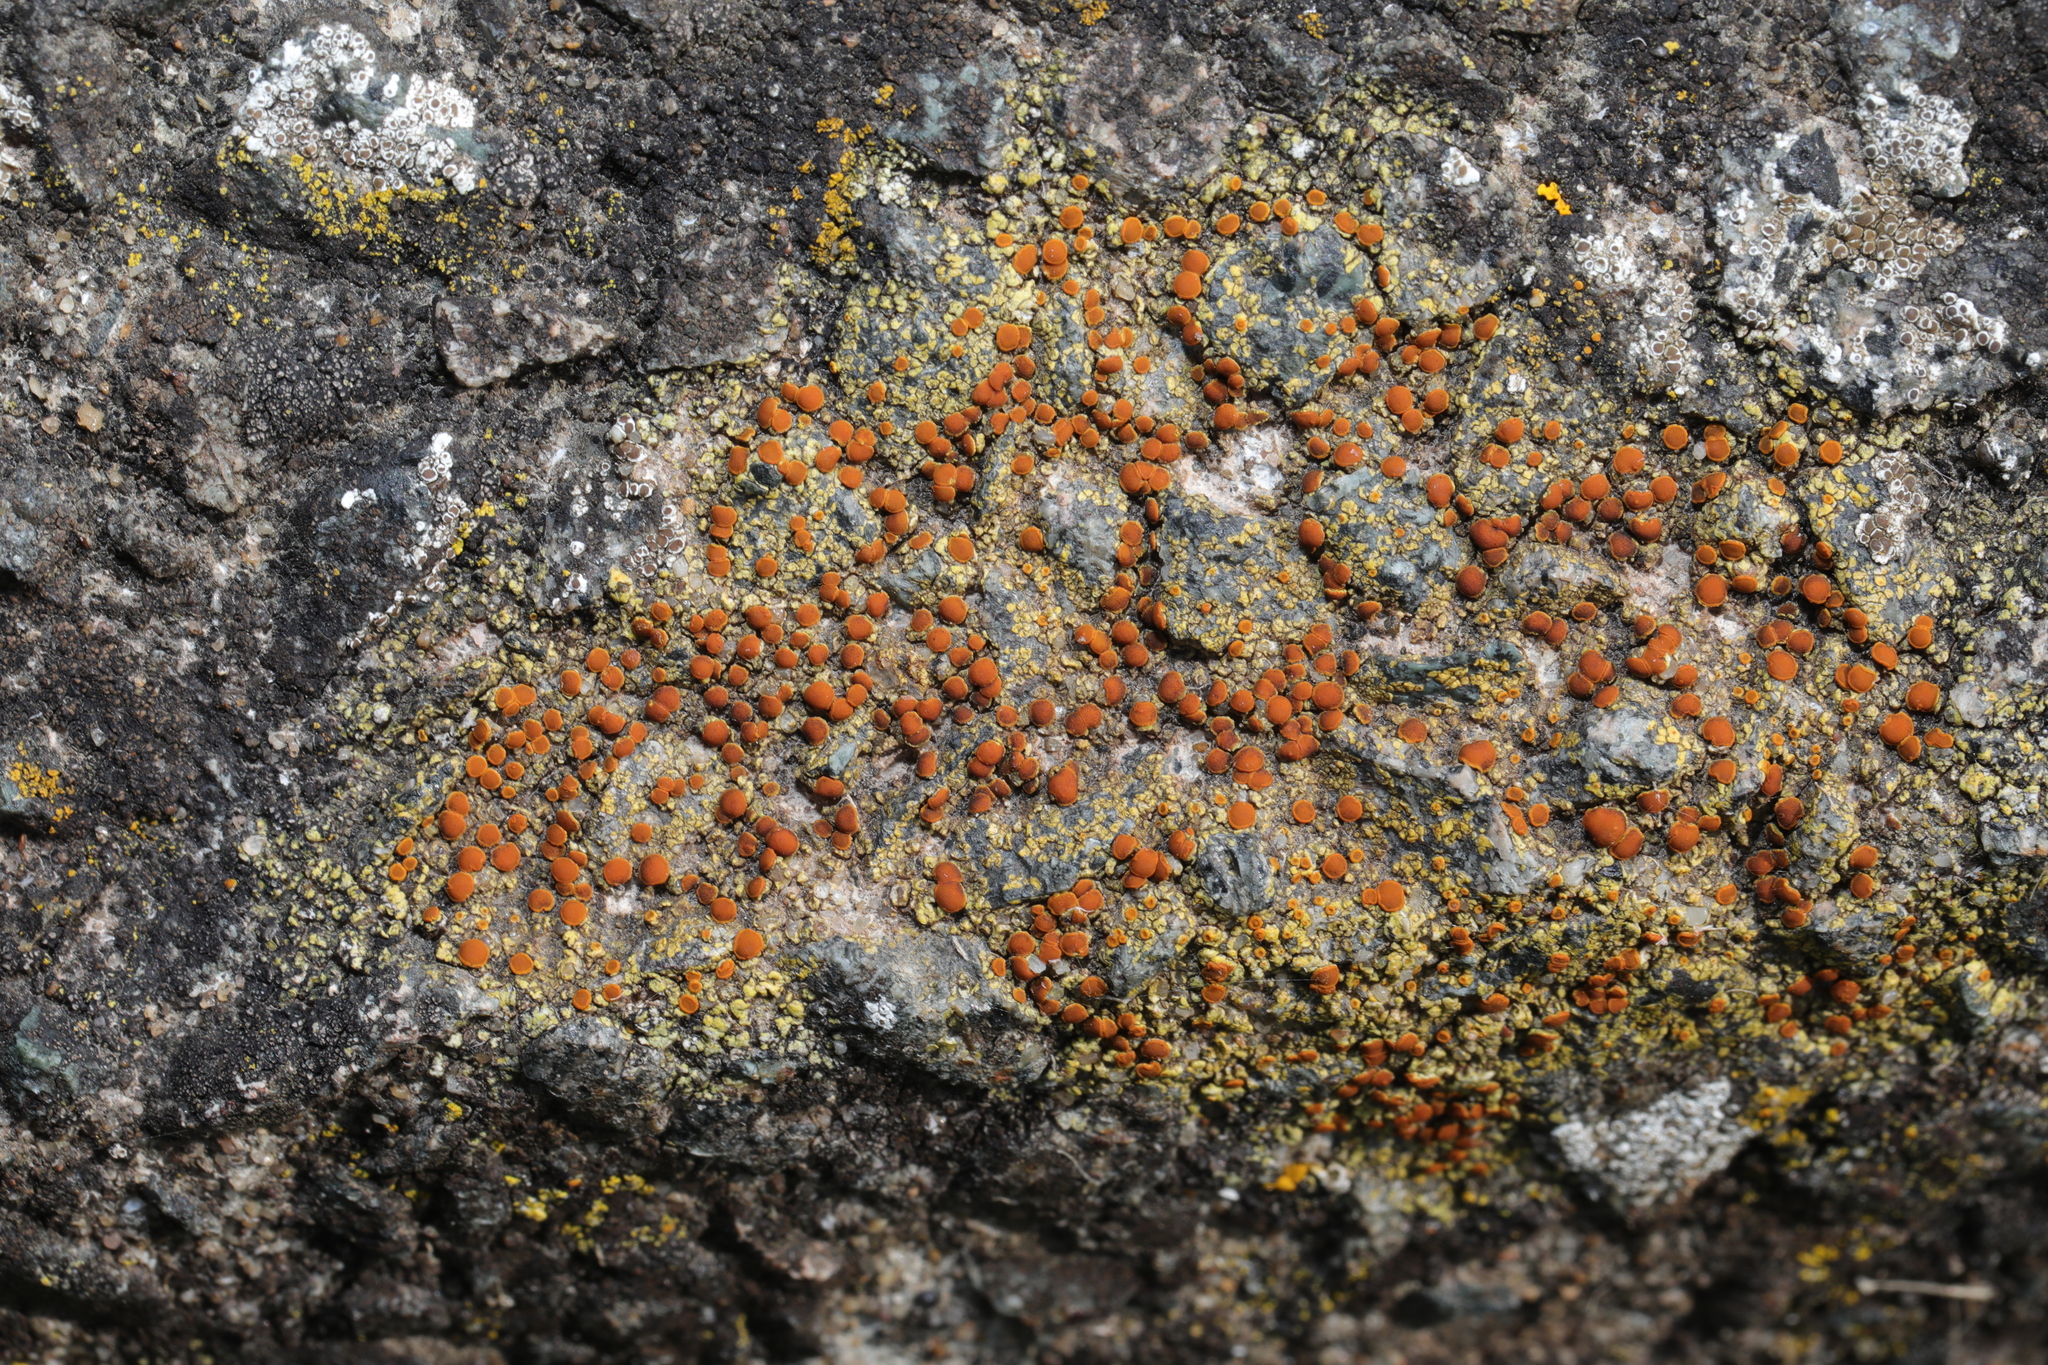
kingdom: Fungi
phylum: Ascomycota
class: Lecanoromycetes
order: Teloschistales
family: Teloschistaceae
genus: Gyalolechia
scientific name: Gyalolechia flavovirescens
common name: Sulphur firedot
